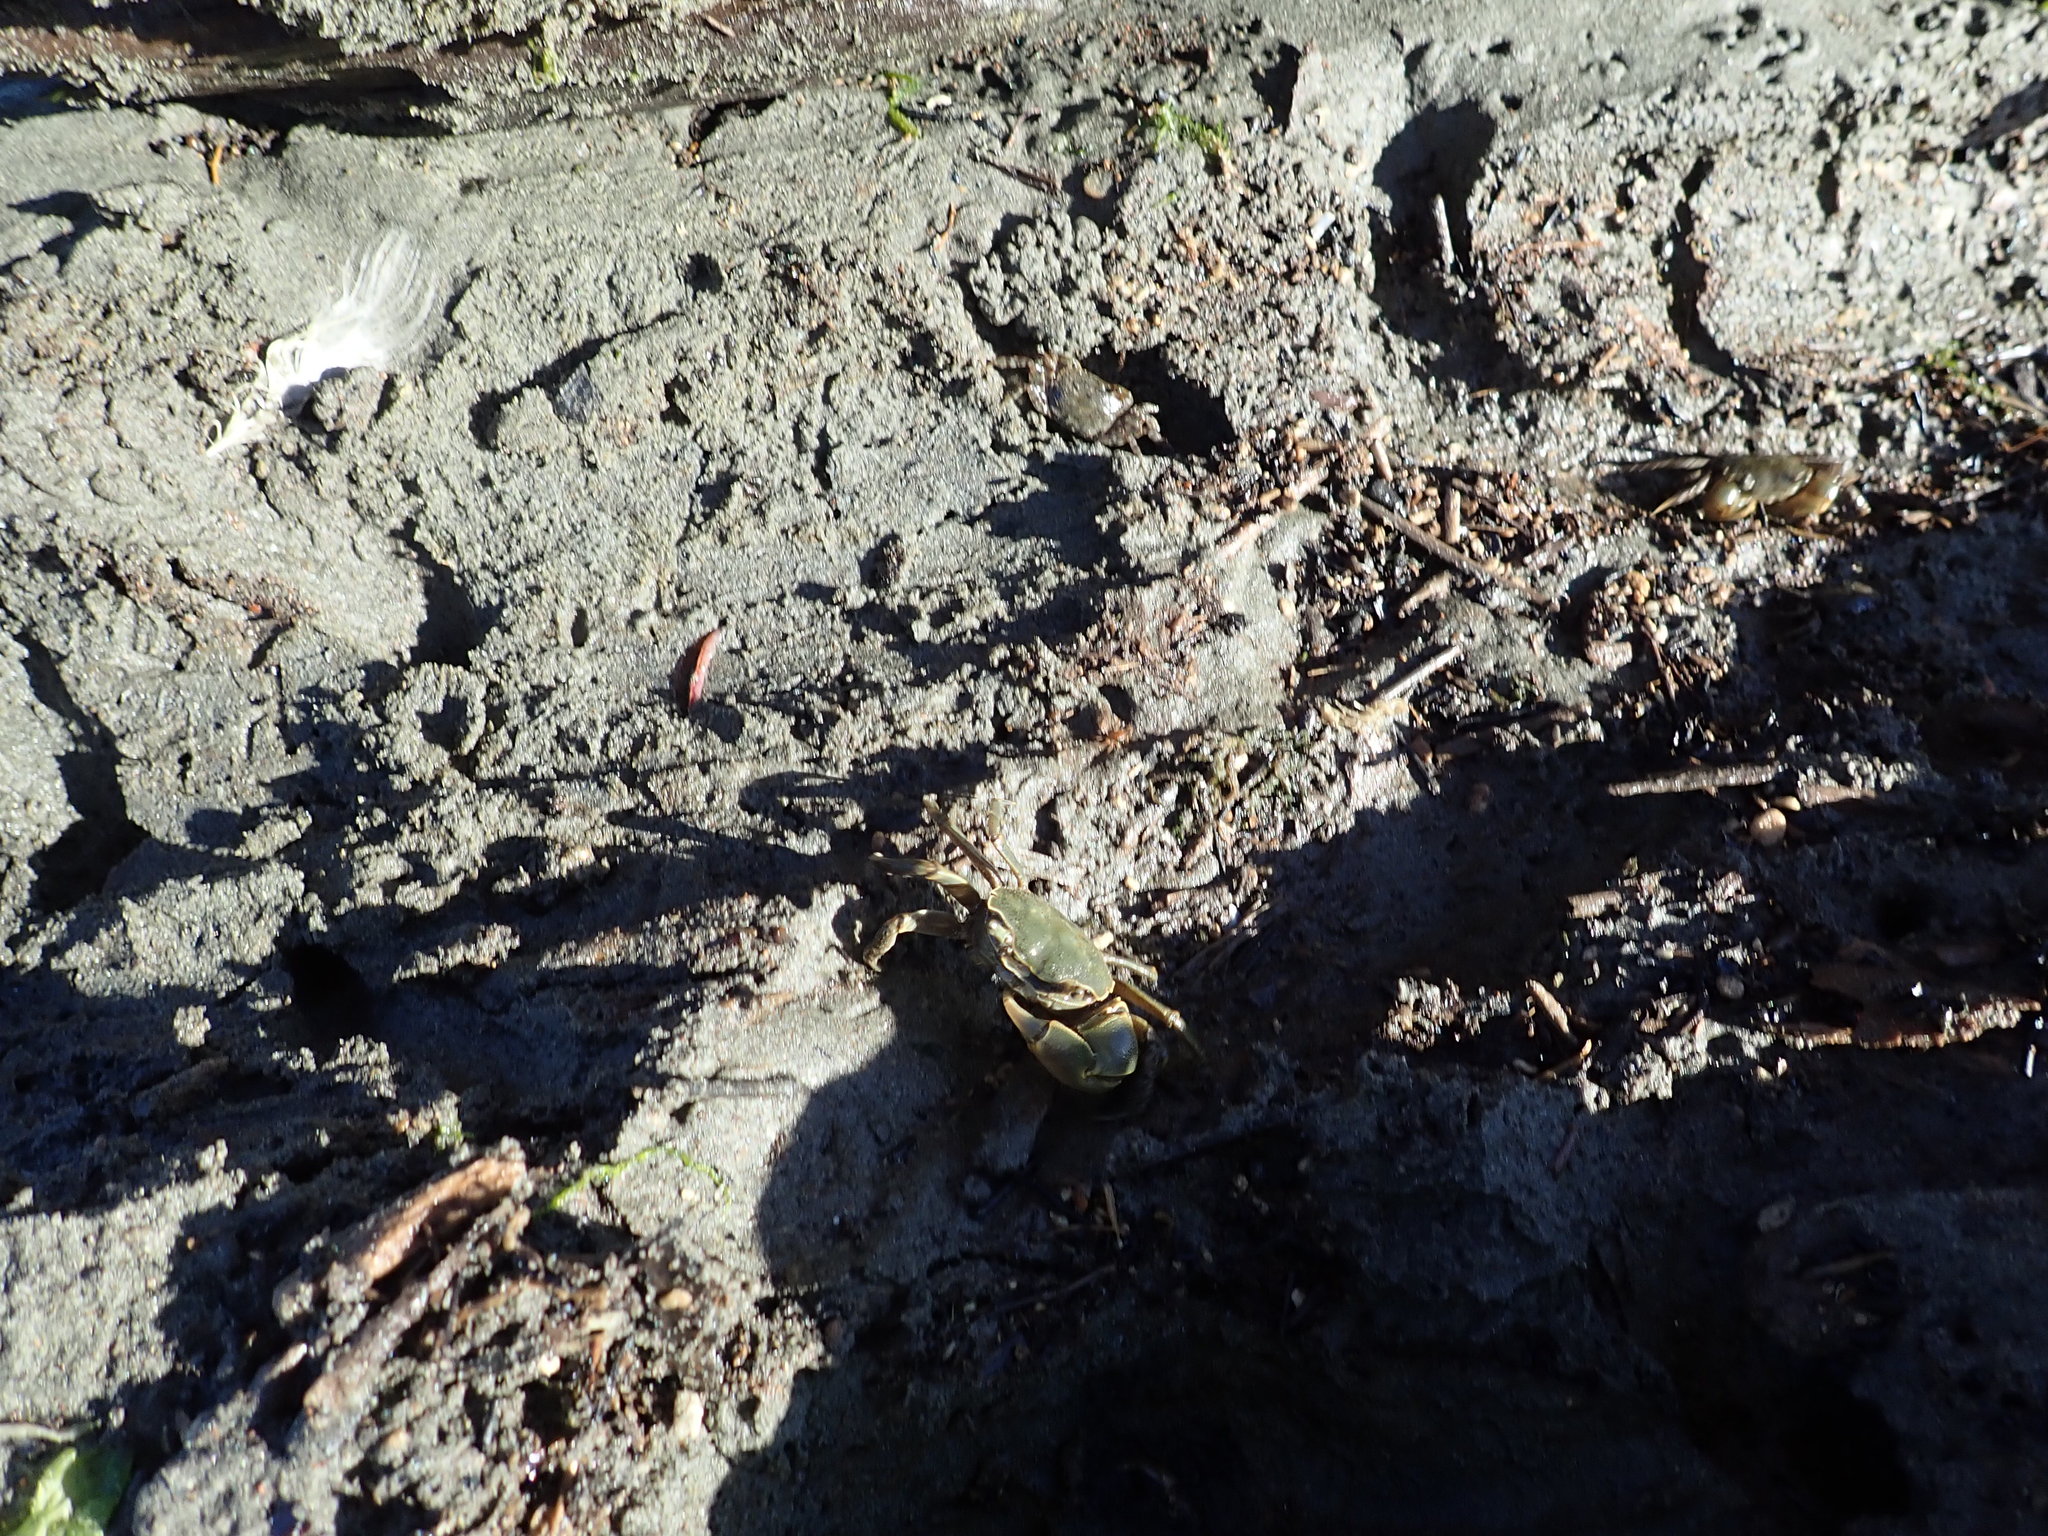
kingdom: Animalia
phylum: Arthropoda
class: Malacostraca
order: Decapoda
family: Varunidae
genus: Austrohelice
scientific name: Austrohelice crassa
